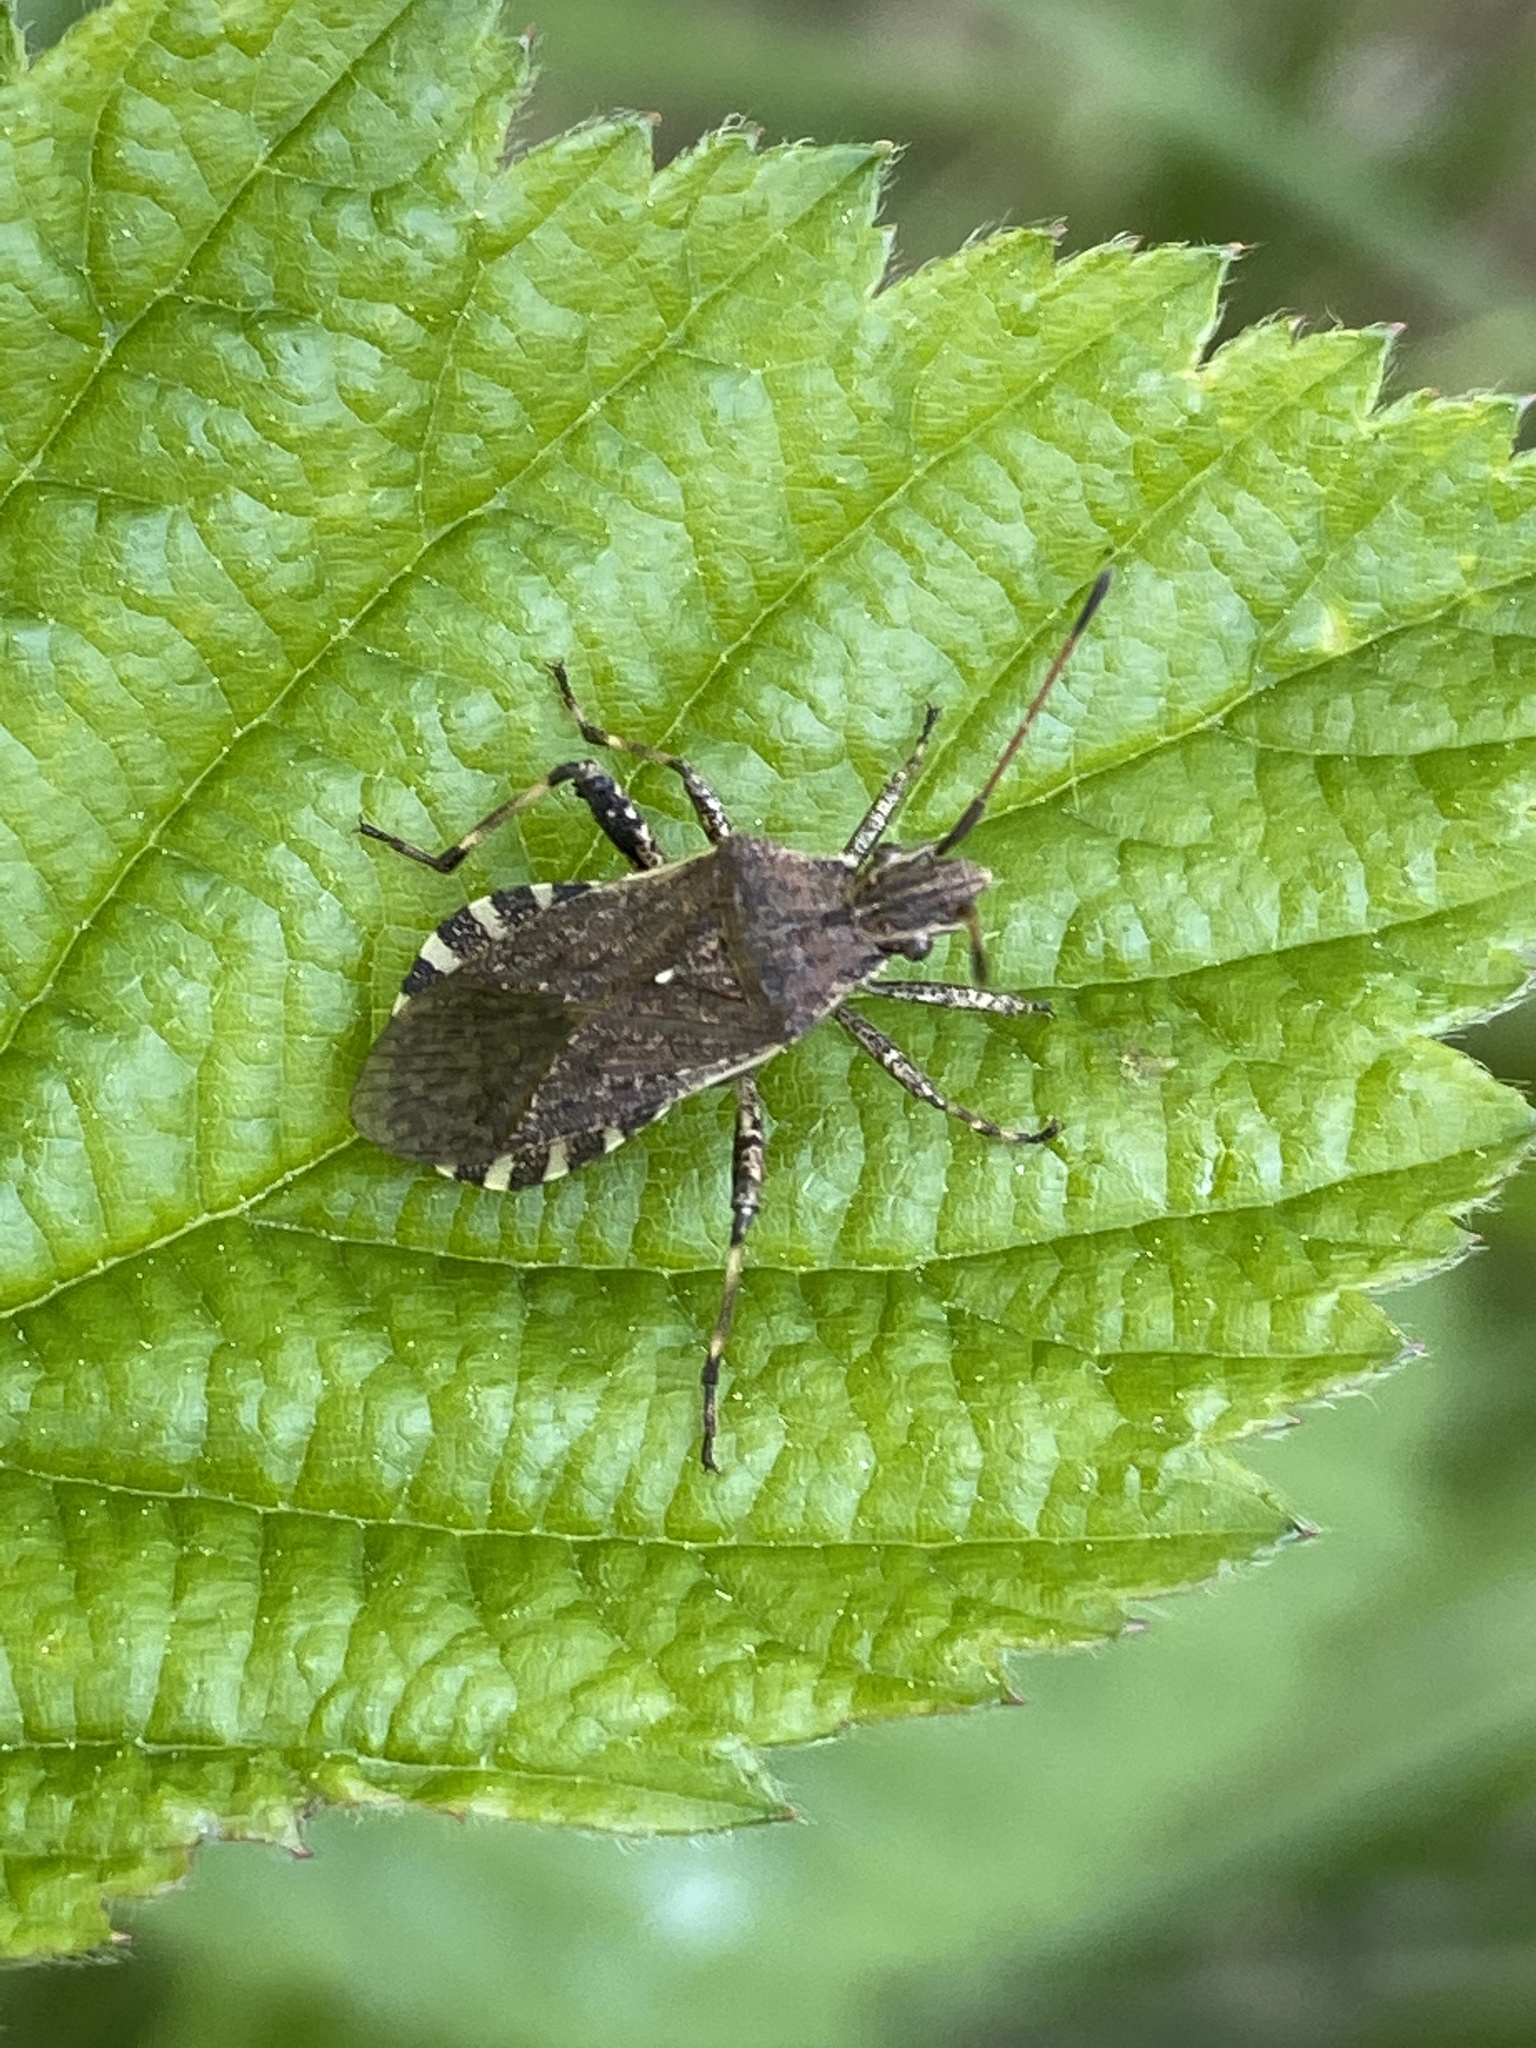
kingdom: Animalia
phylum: Arthropoda
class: Insecta
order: Hemiptera
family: Coreidae
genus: Ceraleptus
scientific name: Ceraleptus gracilicornis
